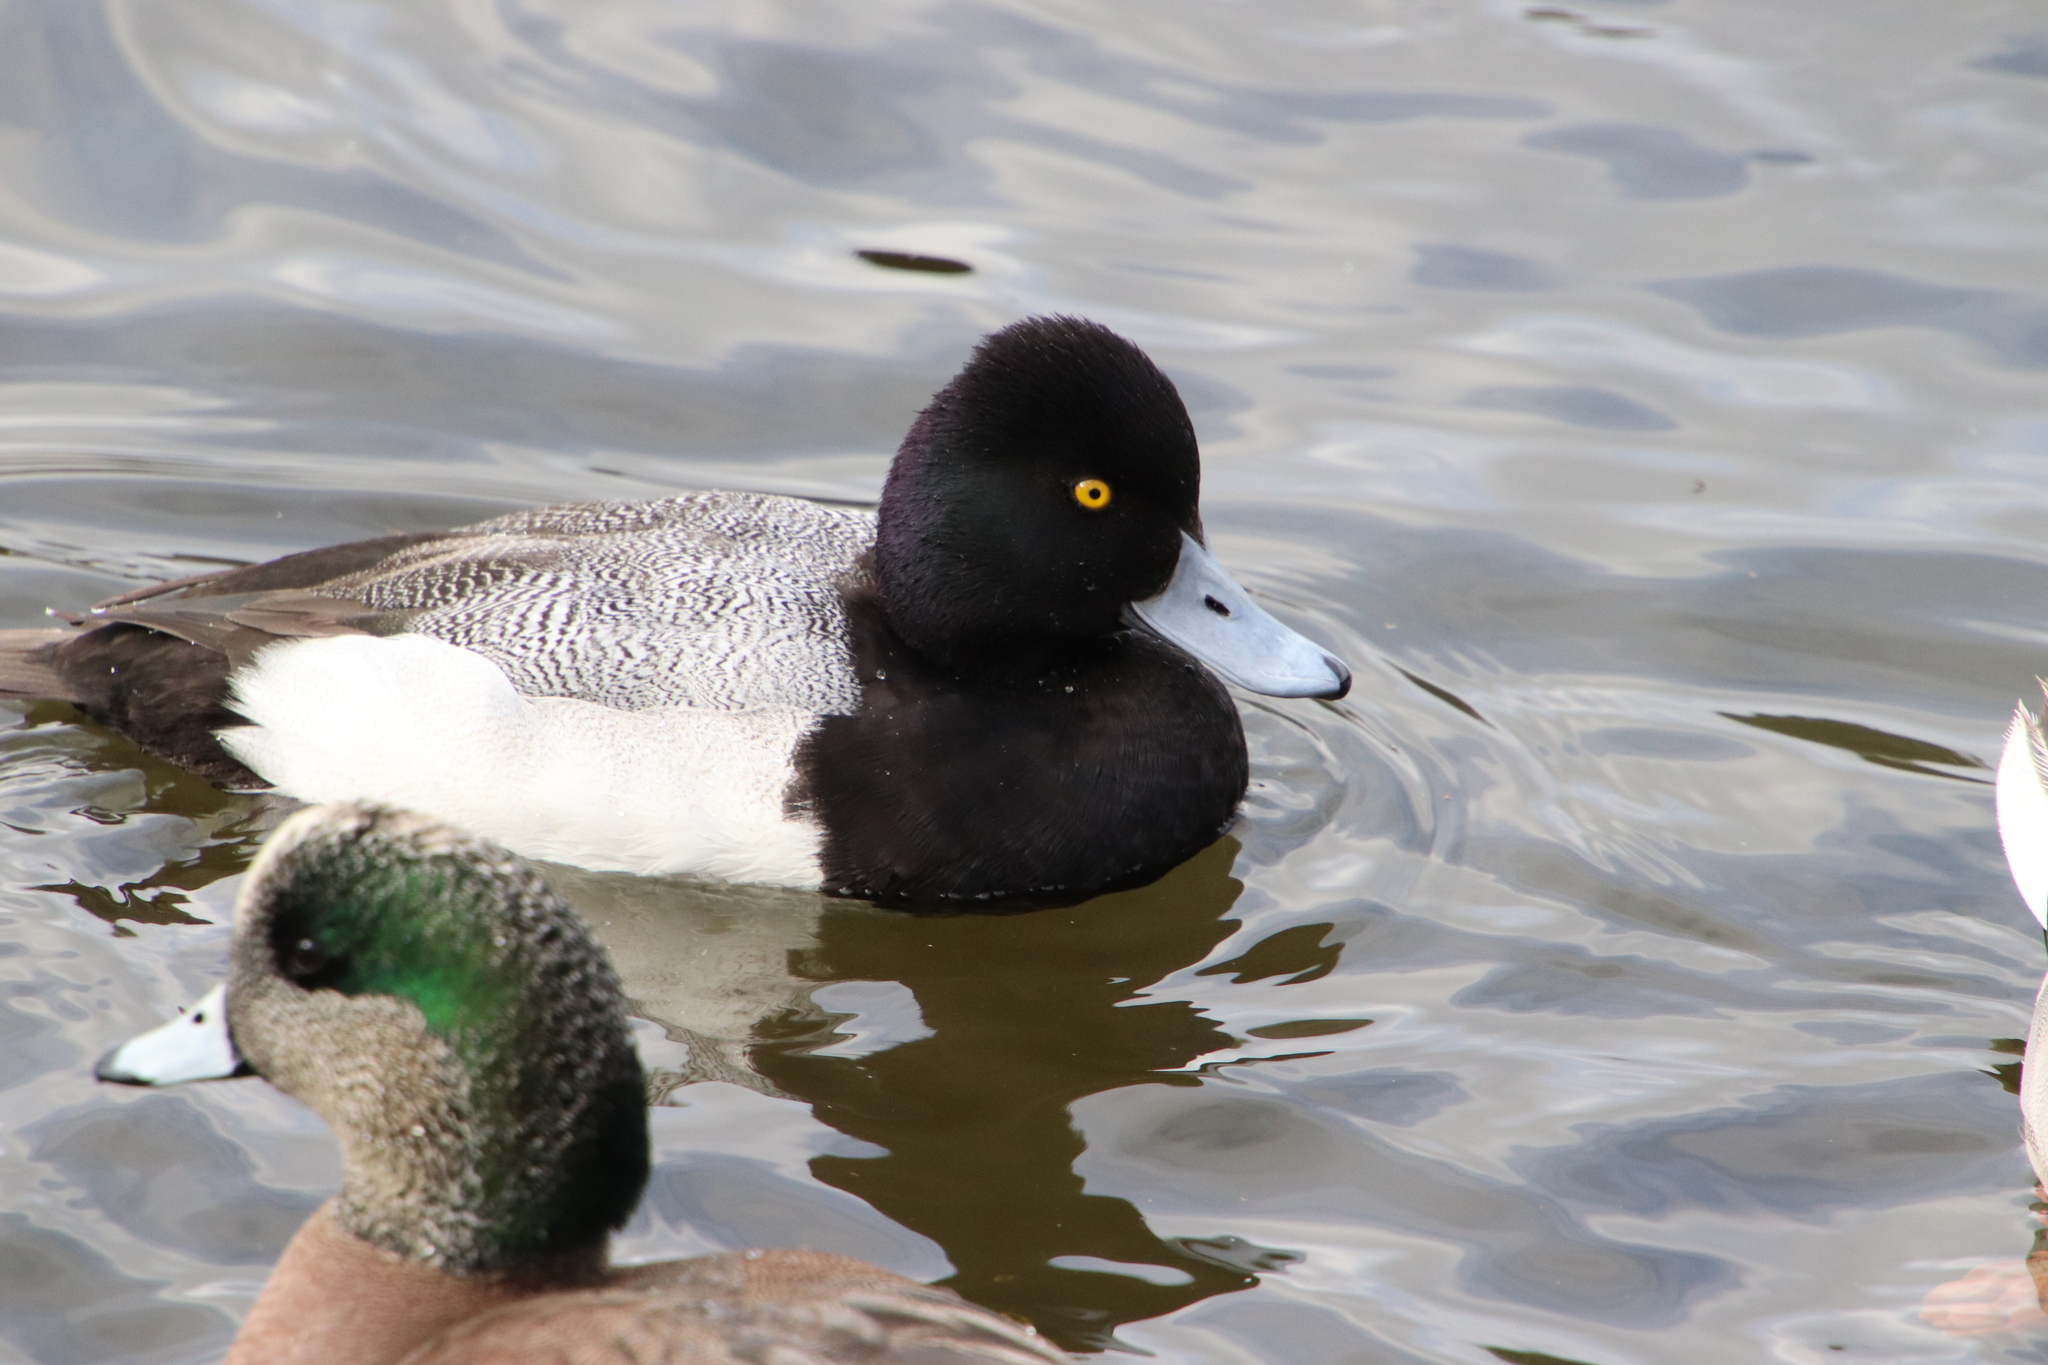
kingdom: Animalia
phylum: Chordata
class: Aves
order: Anseriformes
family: Anatidae
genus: Aythya
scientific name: Aythya affinis
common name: Lesser scaup
